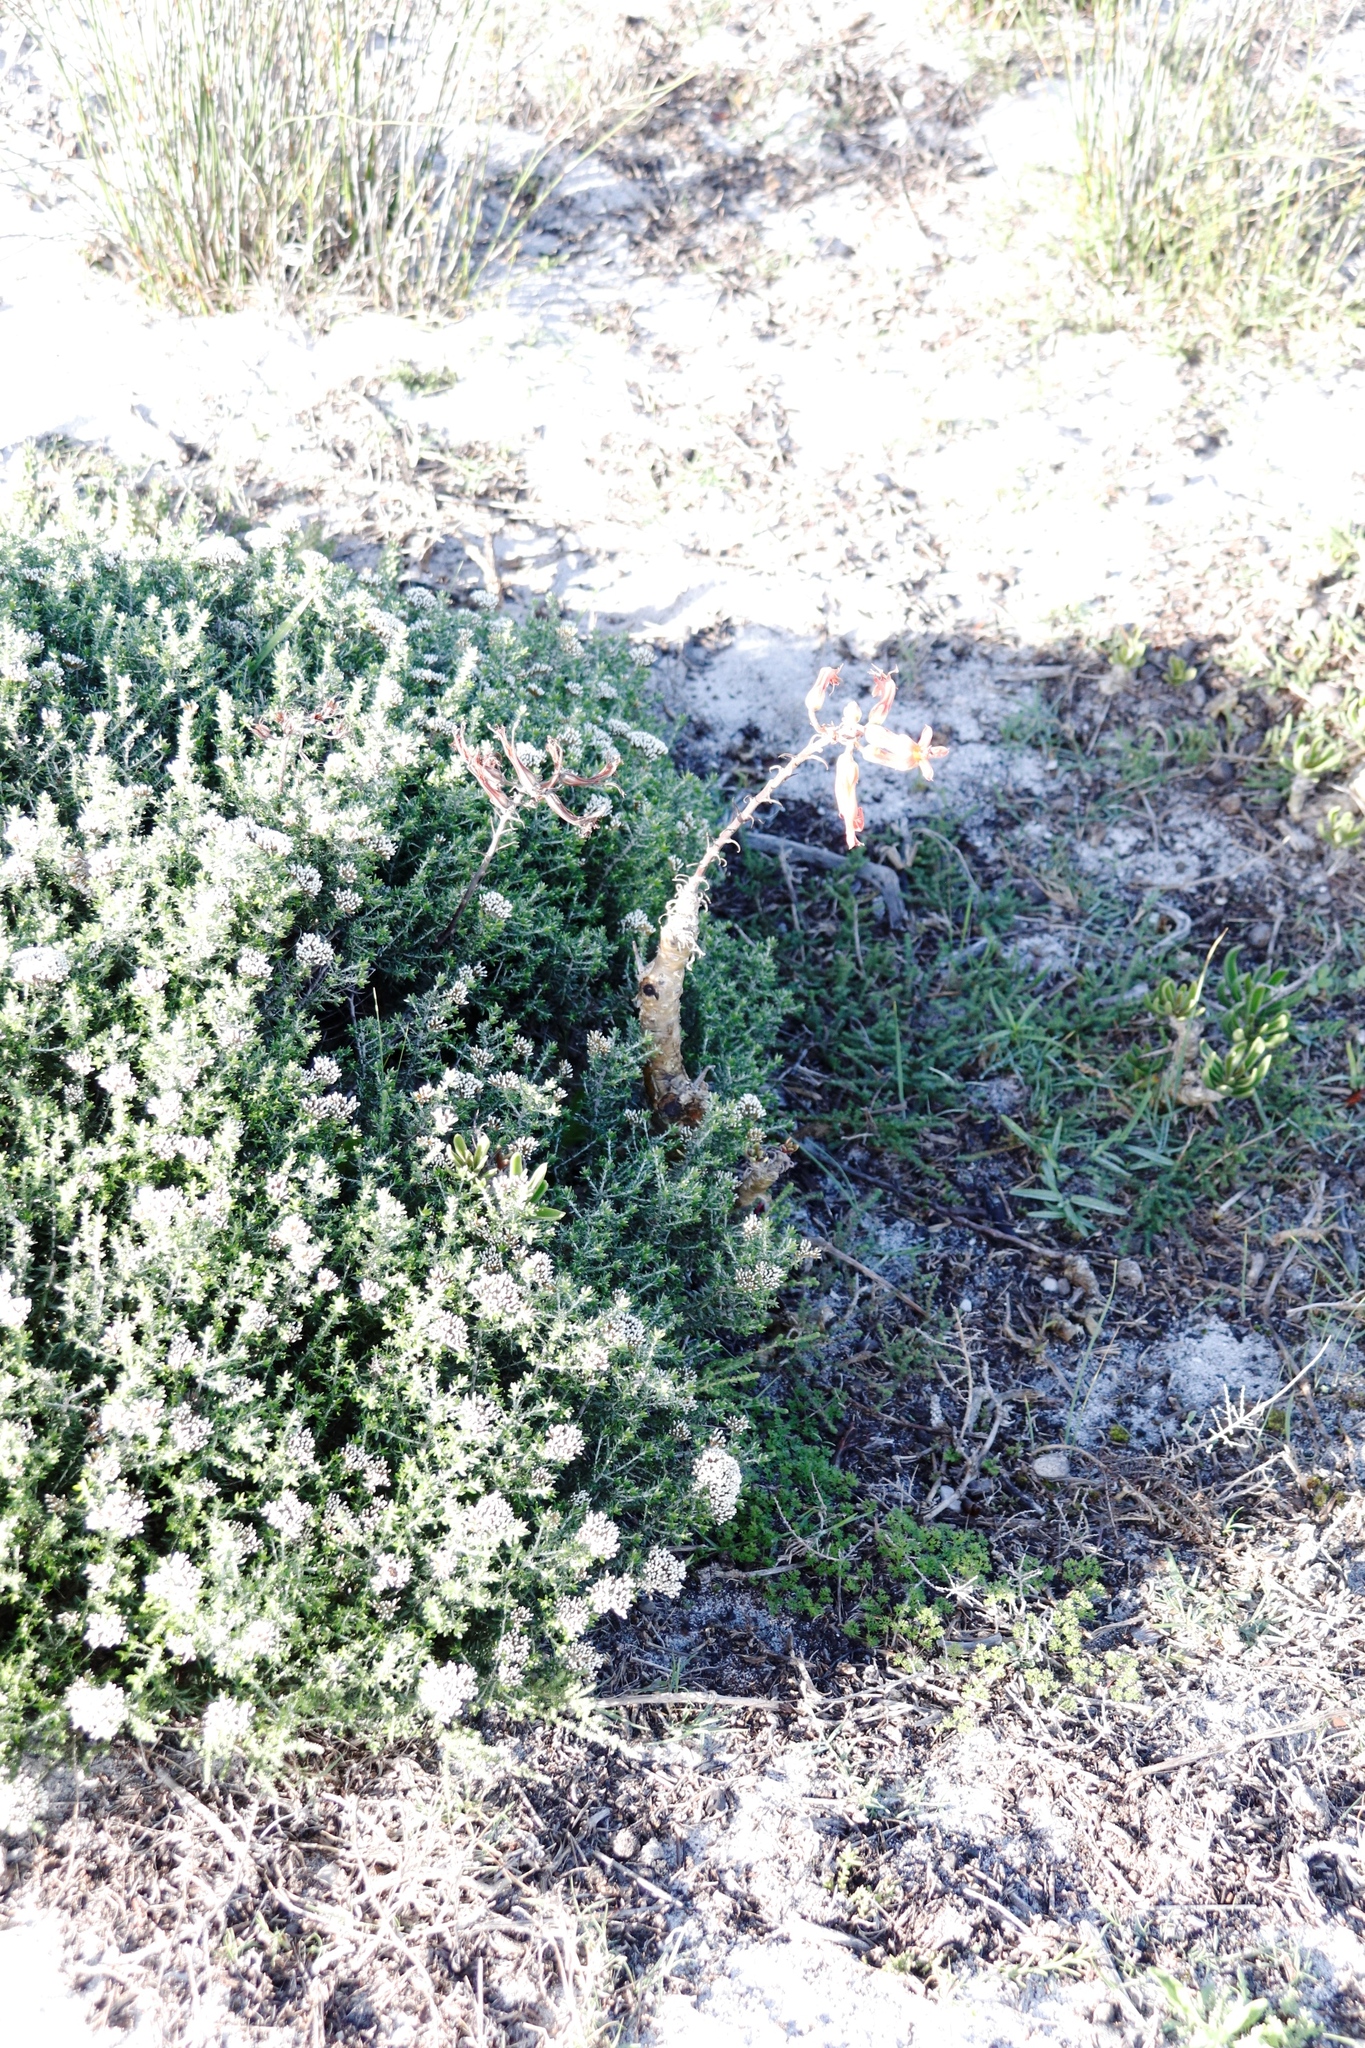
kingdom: Plantae
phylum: Tracheophyta
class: Magnoliopsida
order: Saxifragales
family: Crassulaceae
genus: Tylecodon
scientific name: Tylecodon grandiflorus
